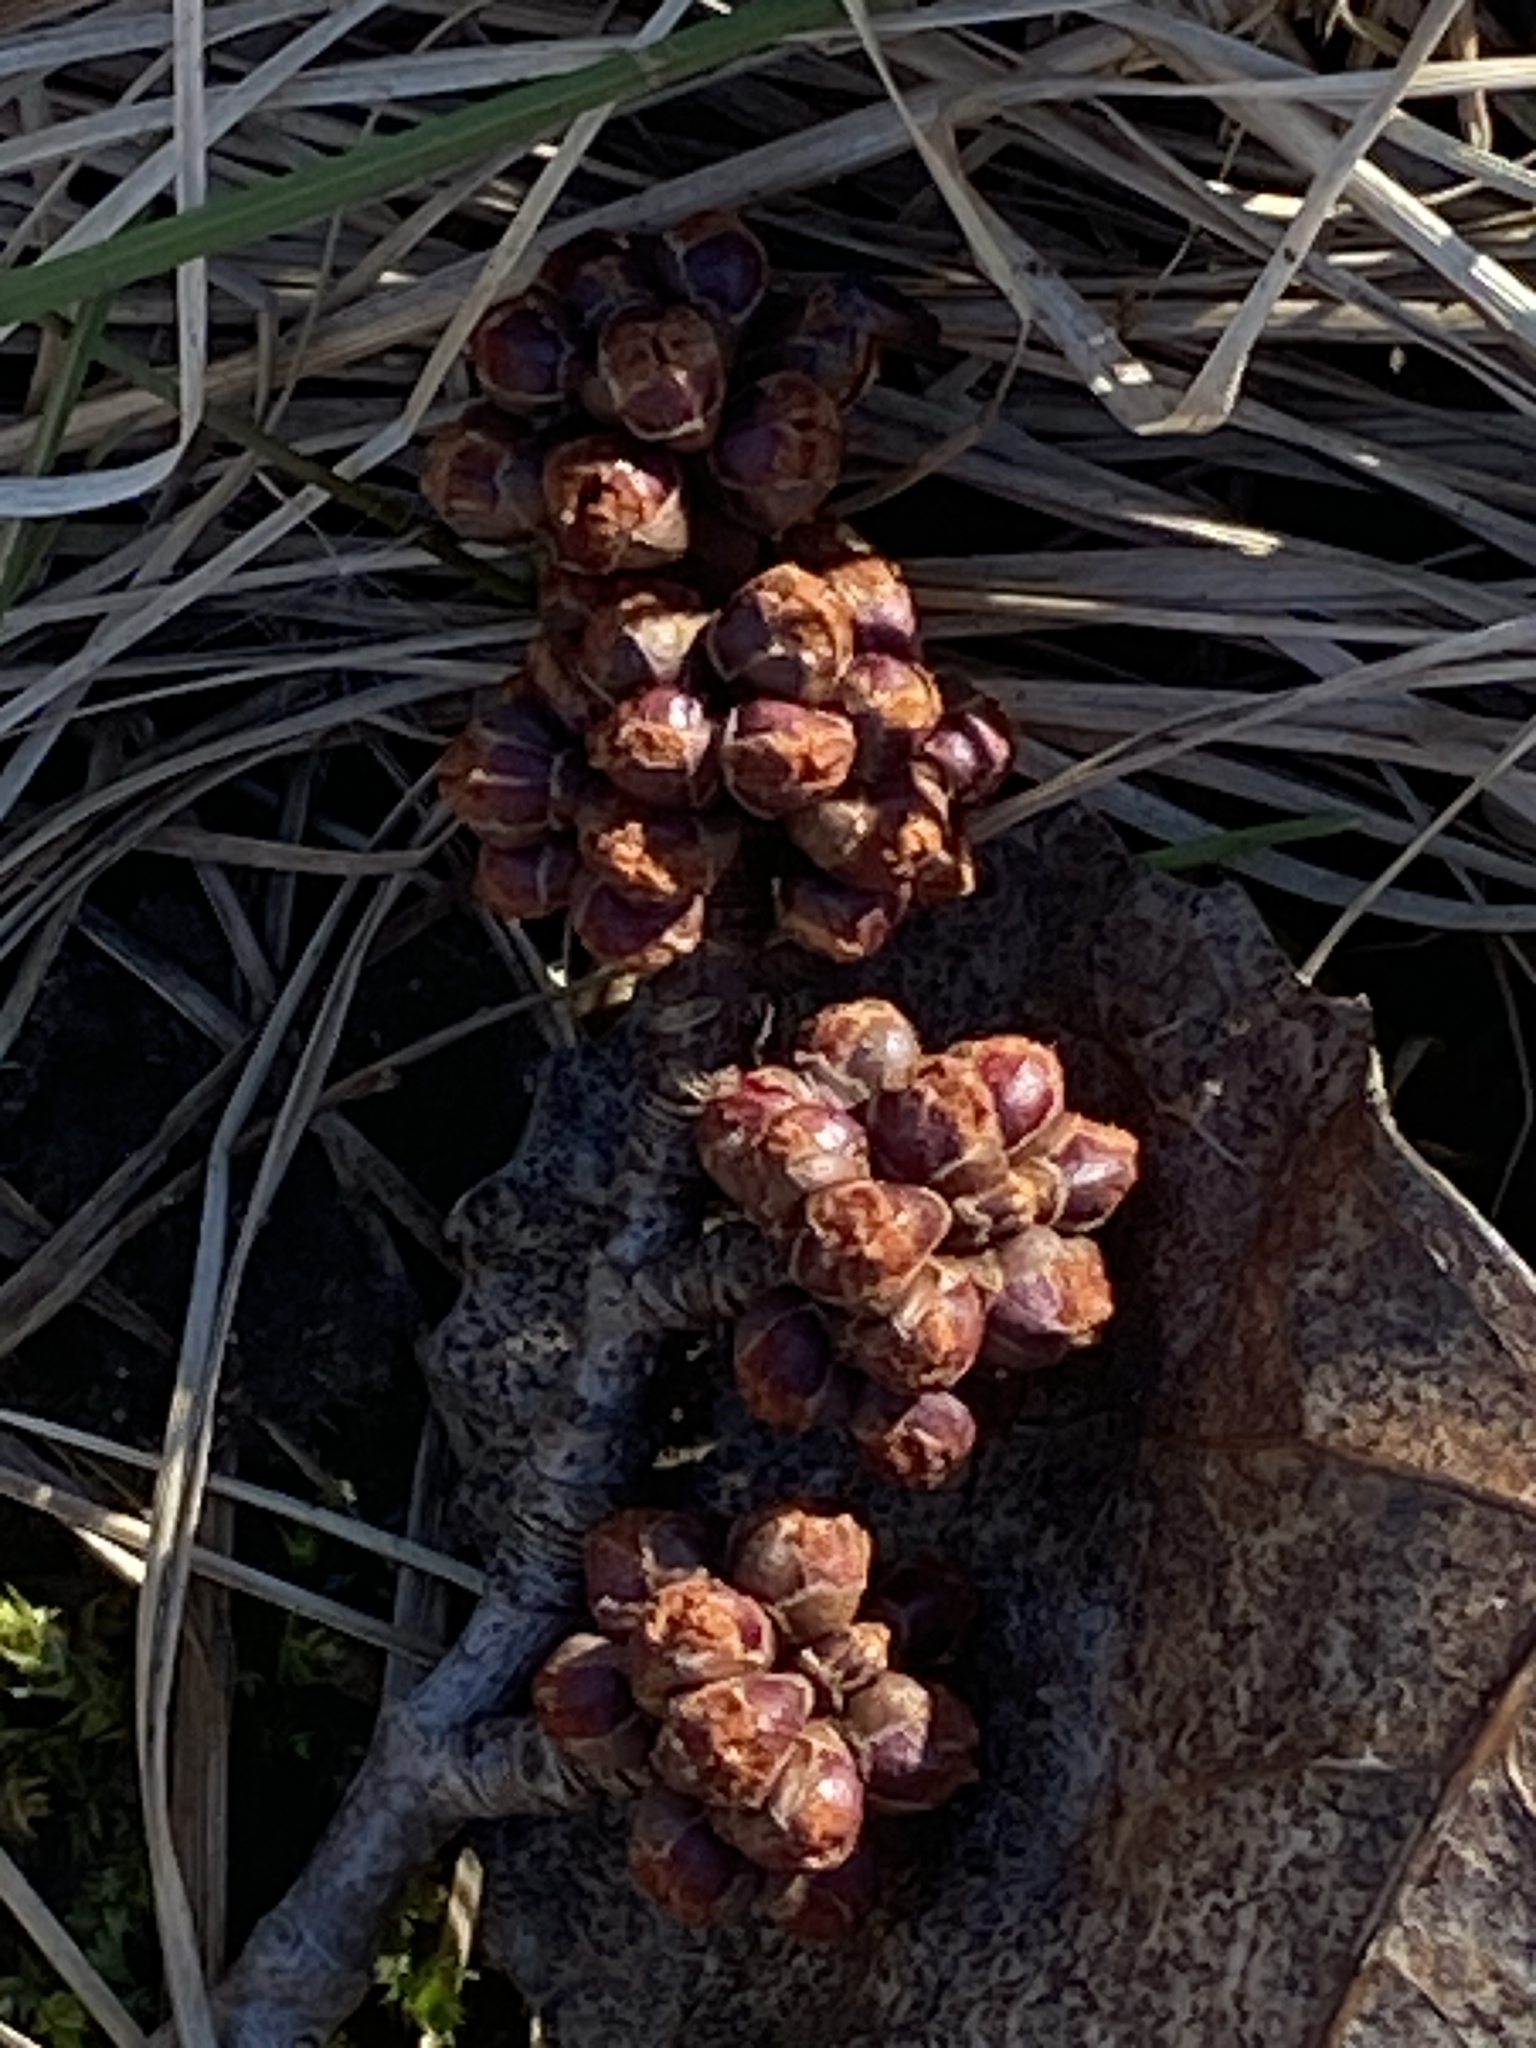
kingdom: Plantae
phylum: Tracheophyta
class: Magnoliopsida
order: Sapindales
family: Sapindaceae
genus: Acer
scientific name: Acer saccharinum
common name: Silver maple
